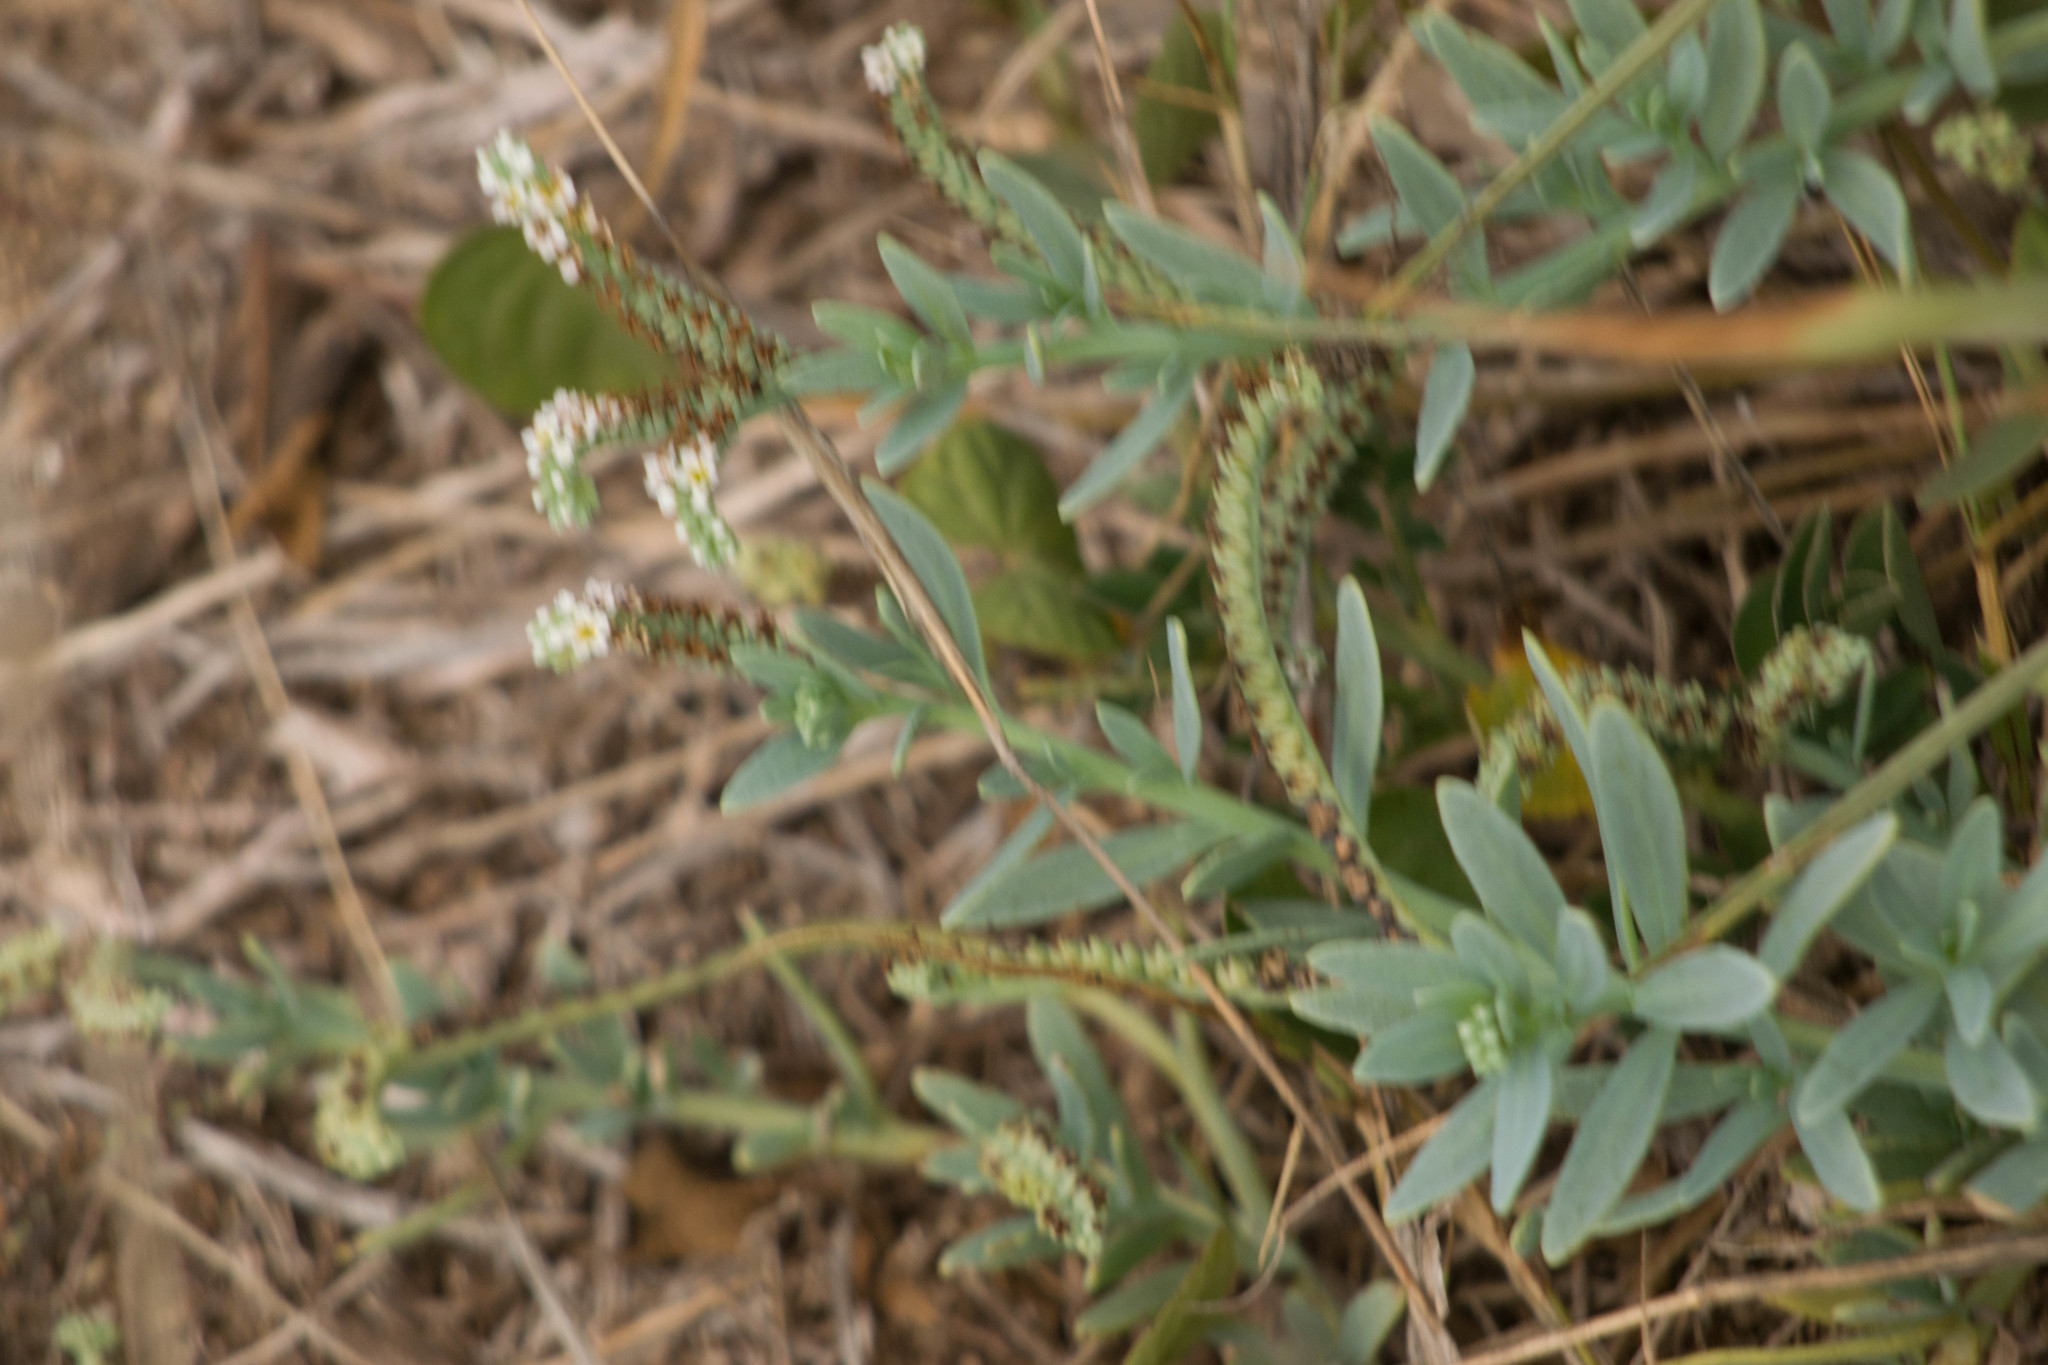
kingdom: Plantae
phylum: Tracheophyta
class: Magnoliopsida
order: Boraginales
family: Heliotropiaceae
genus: Heliotropium
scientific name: Heliotropium curassavicum
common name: Seaside heliotrope
